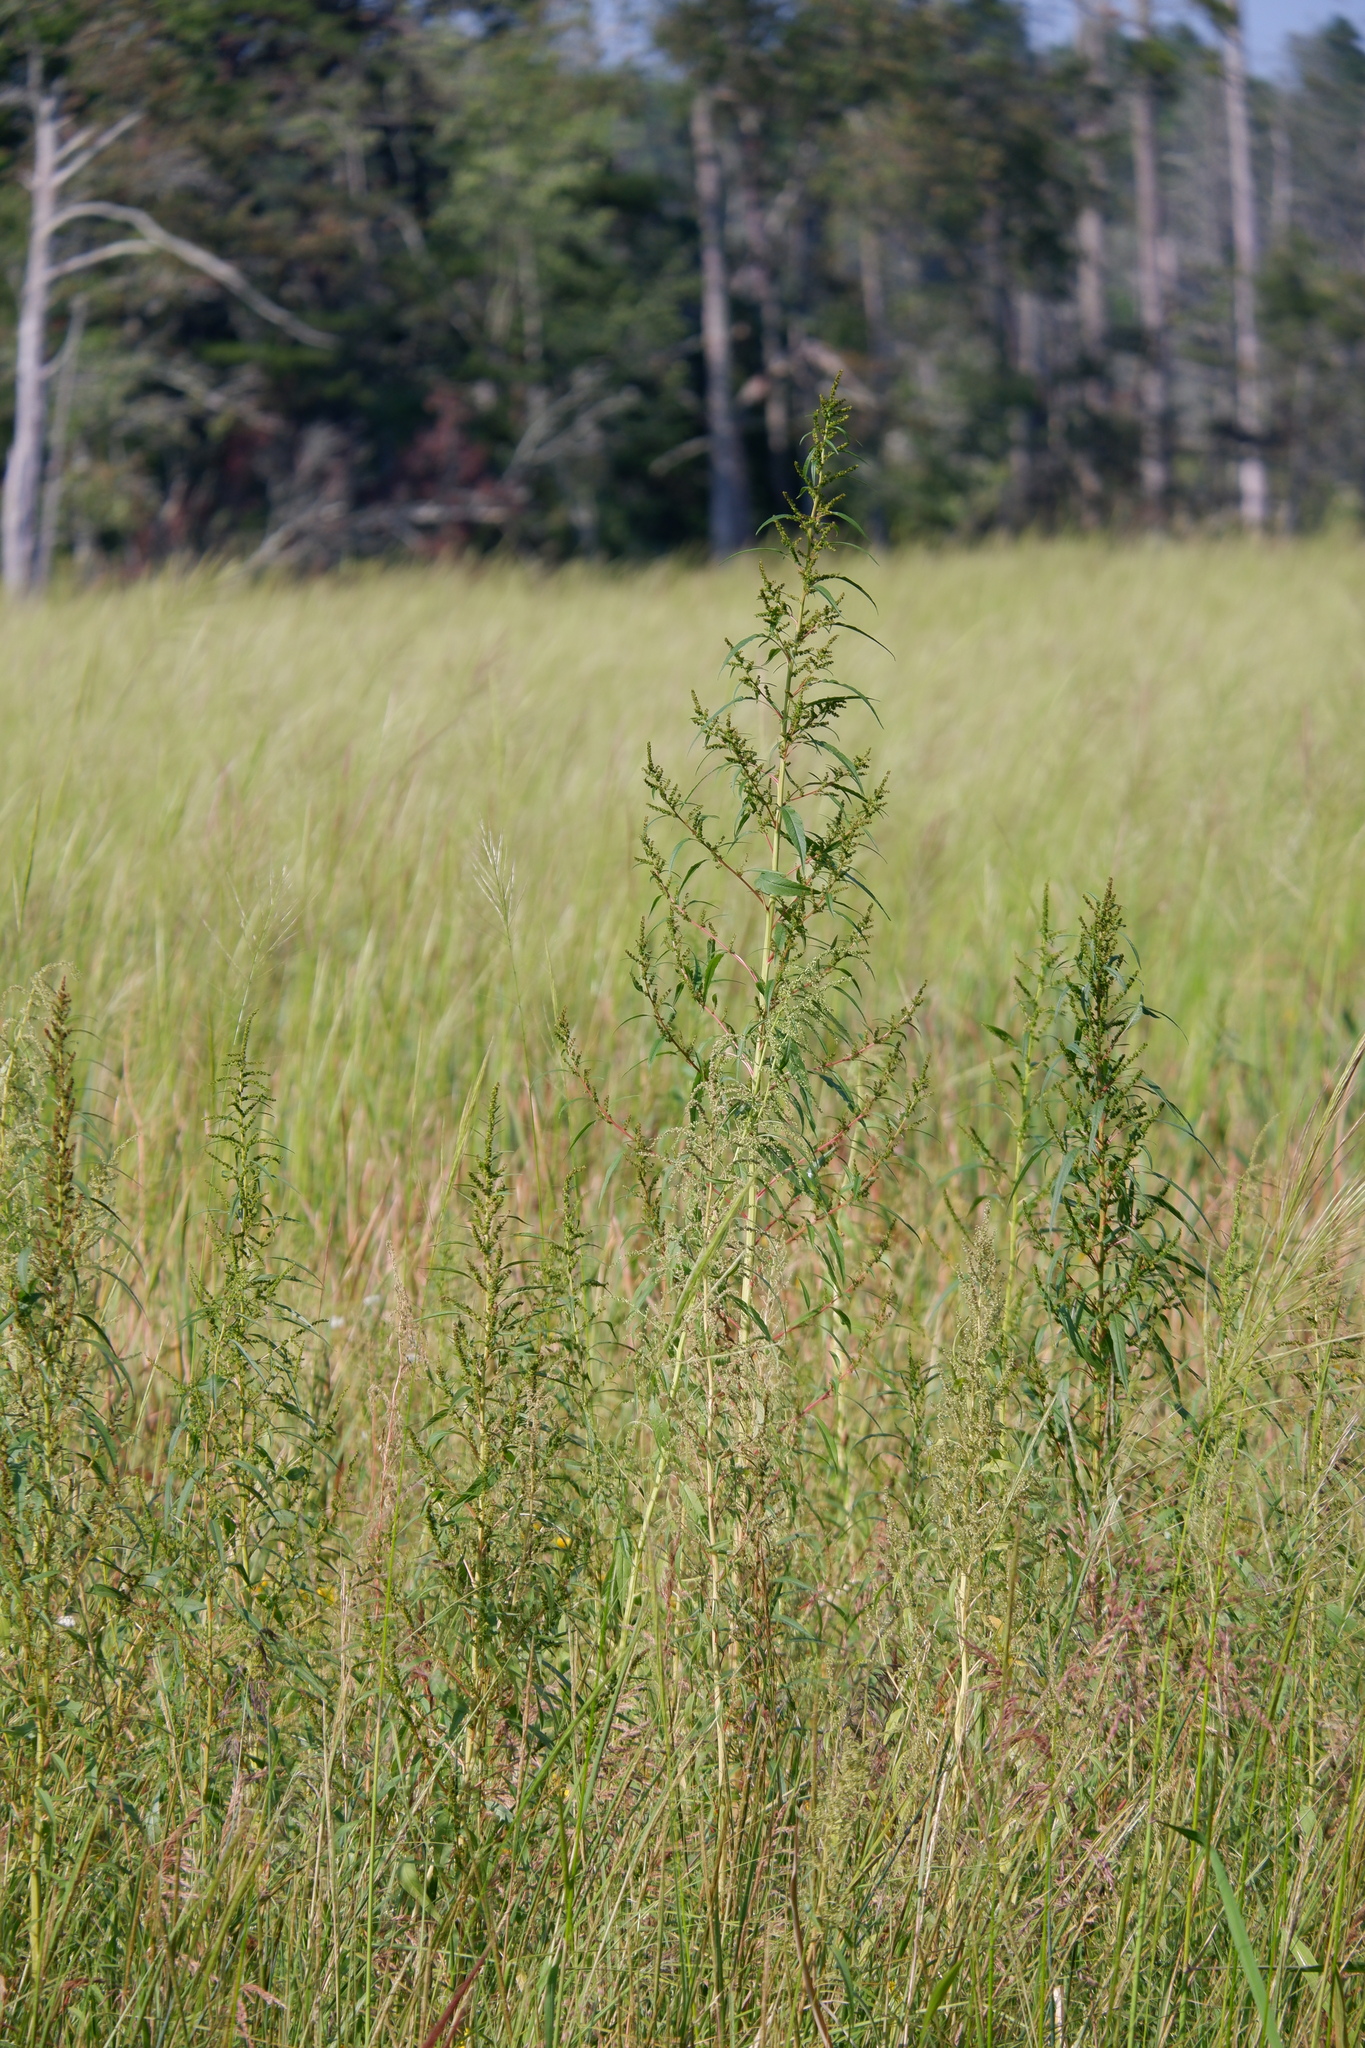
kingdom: Plantae
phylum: Tracheophyta
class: Magnoliopsida
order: Caryophyllales
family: Amaranthaceae
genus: Amaranthus
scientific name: Amaranthus cannabinus
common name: Salt-marsh water-hemp
